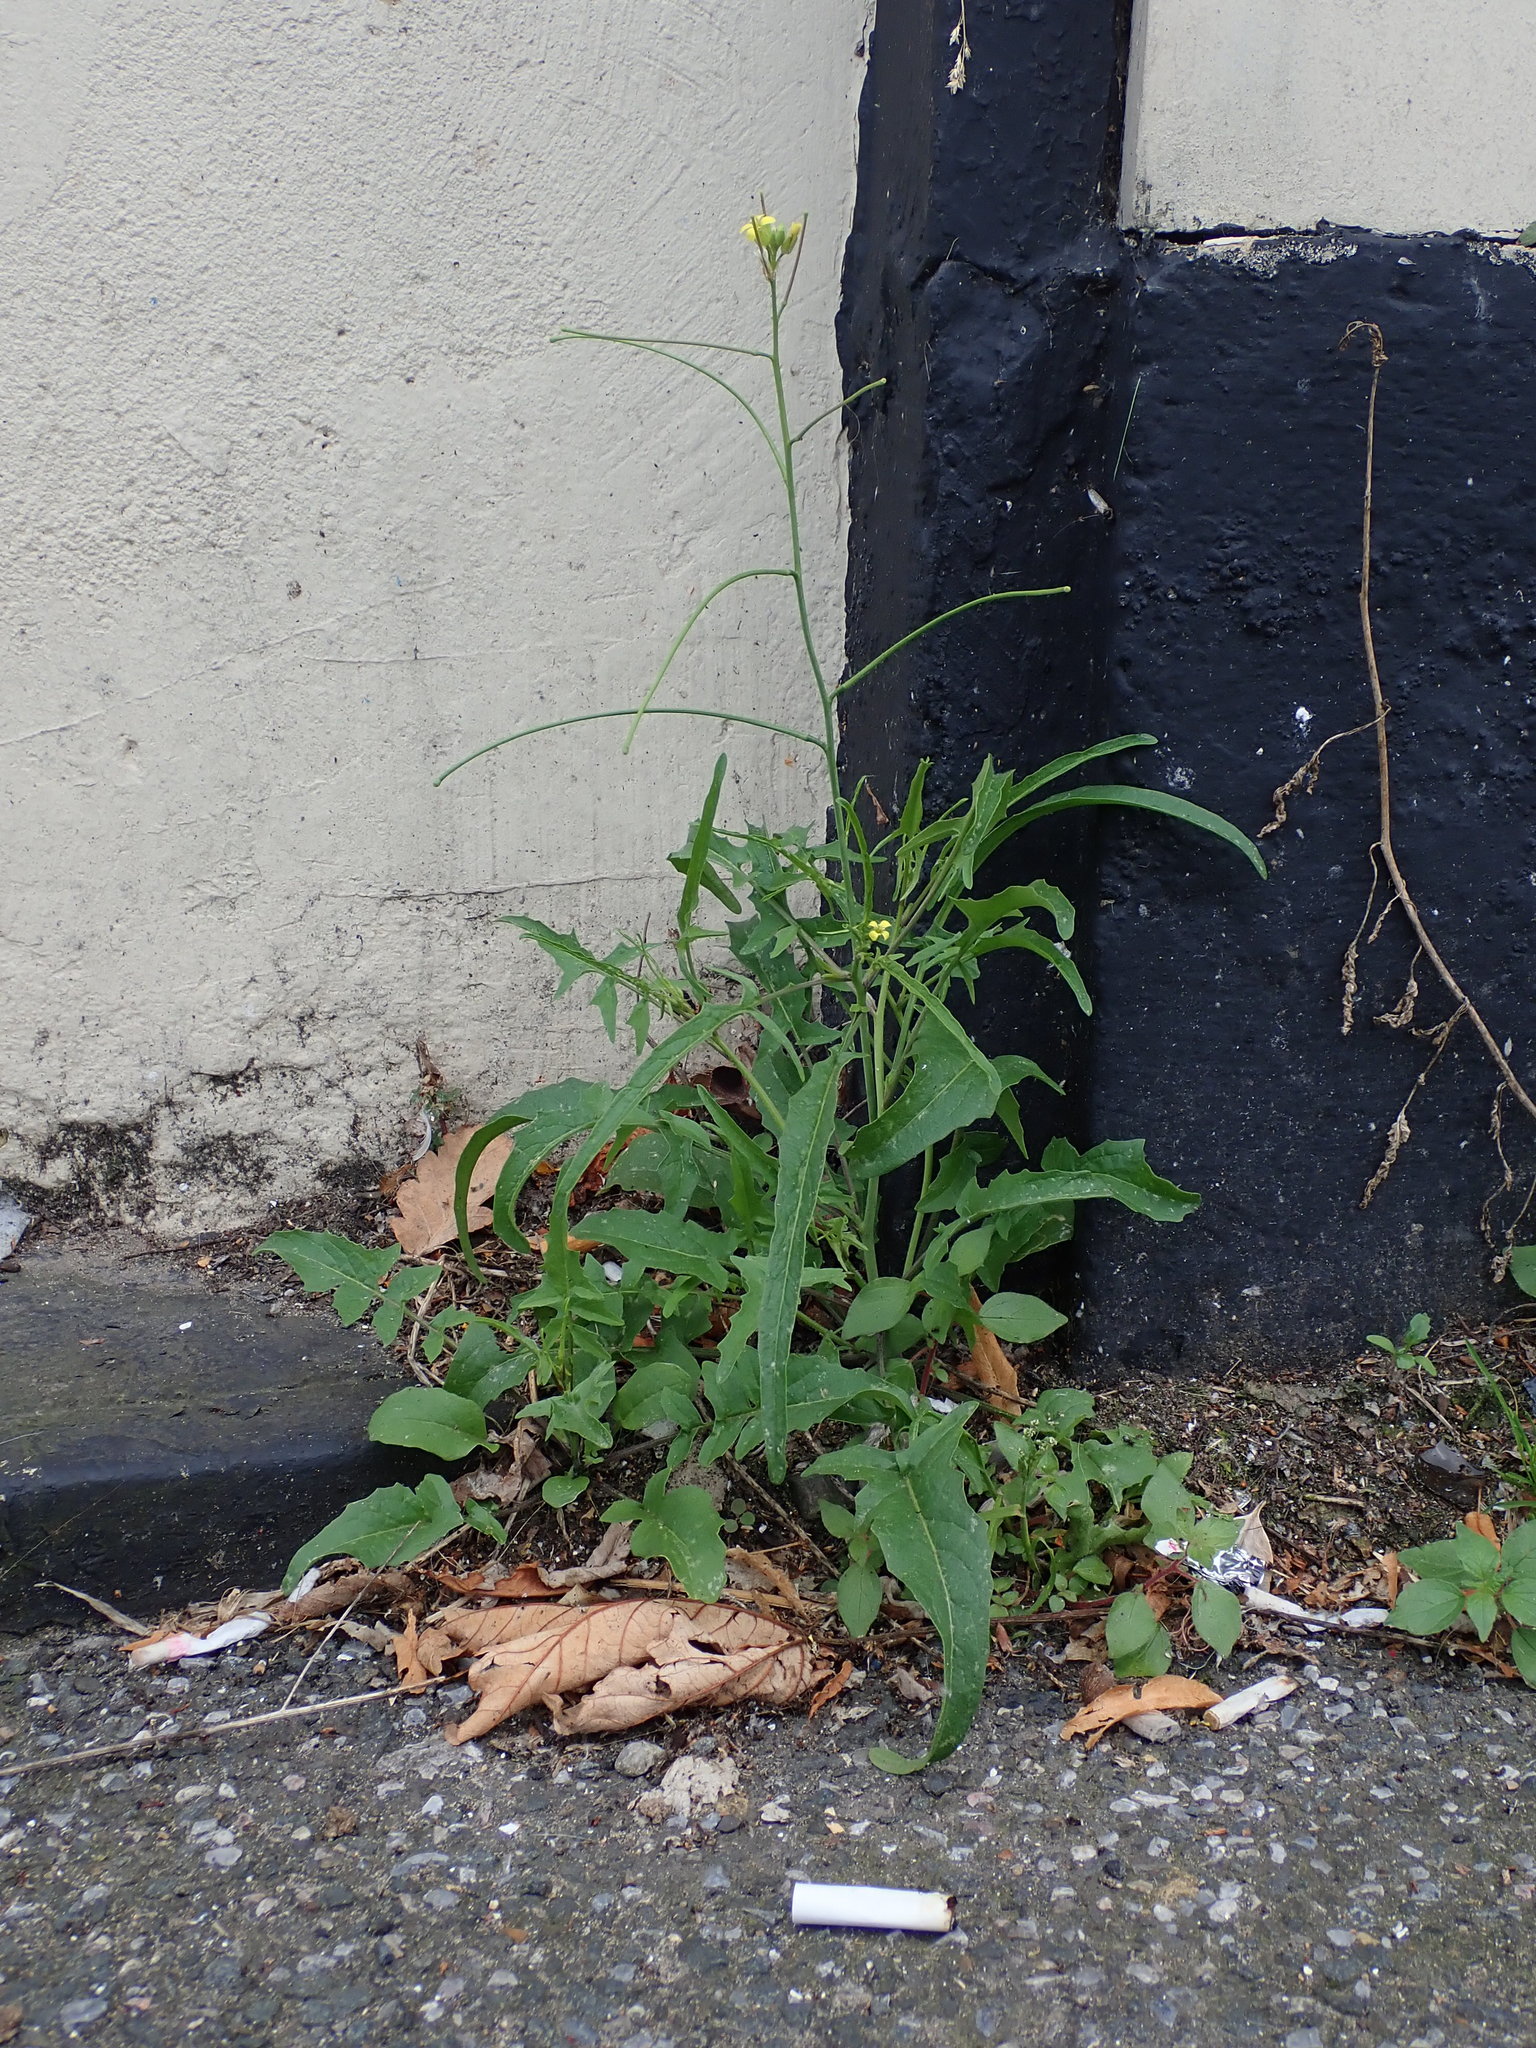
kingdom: Plantae
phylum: Tracheophyta
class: Magnoliopsida
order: Brassicales
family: Brassicaceae
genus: Sisymbrium
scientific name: Sisymbrium orientale
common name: Eastern rocket
